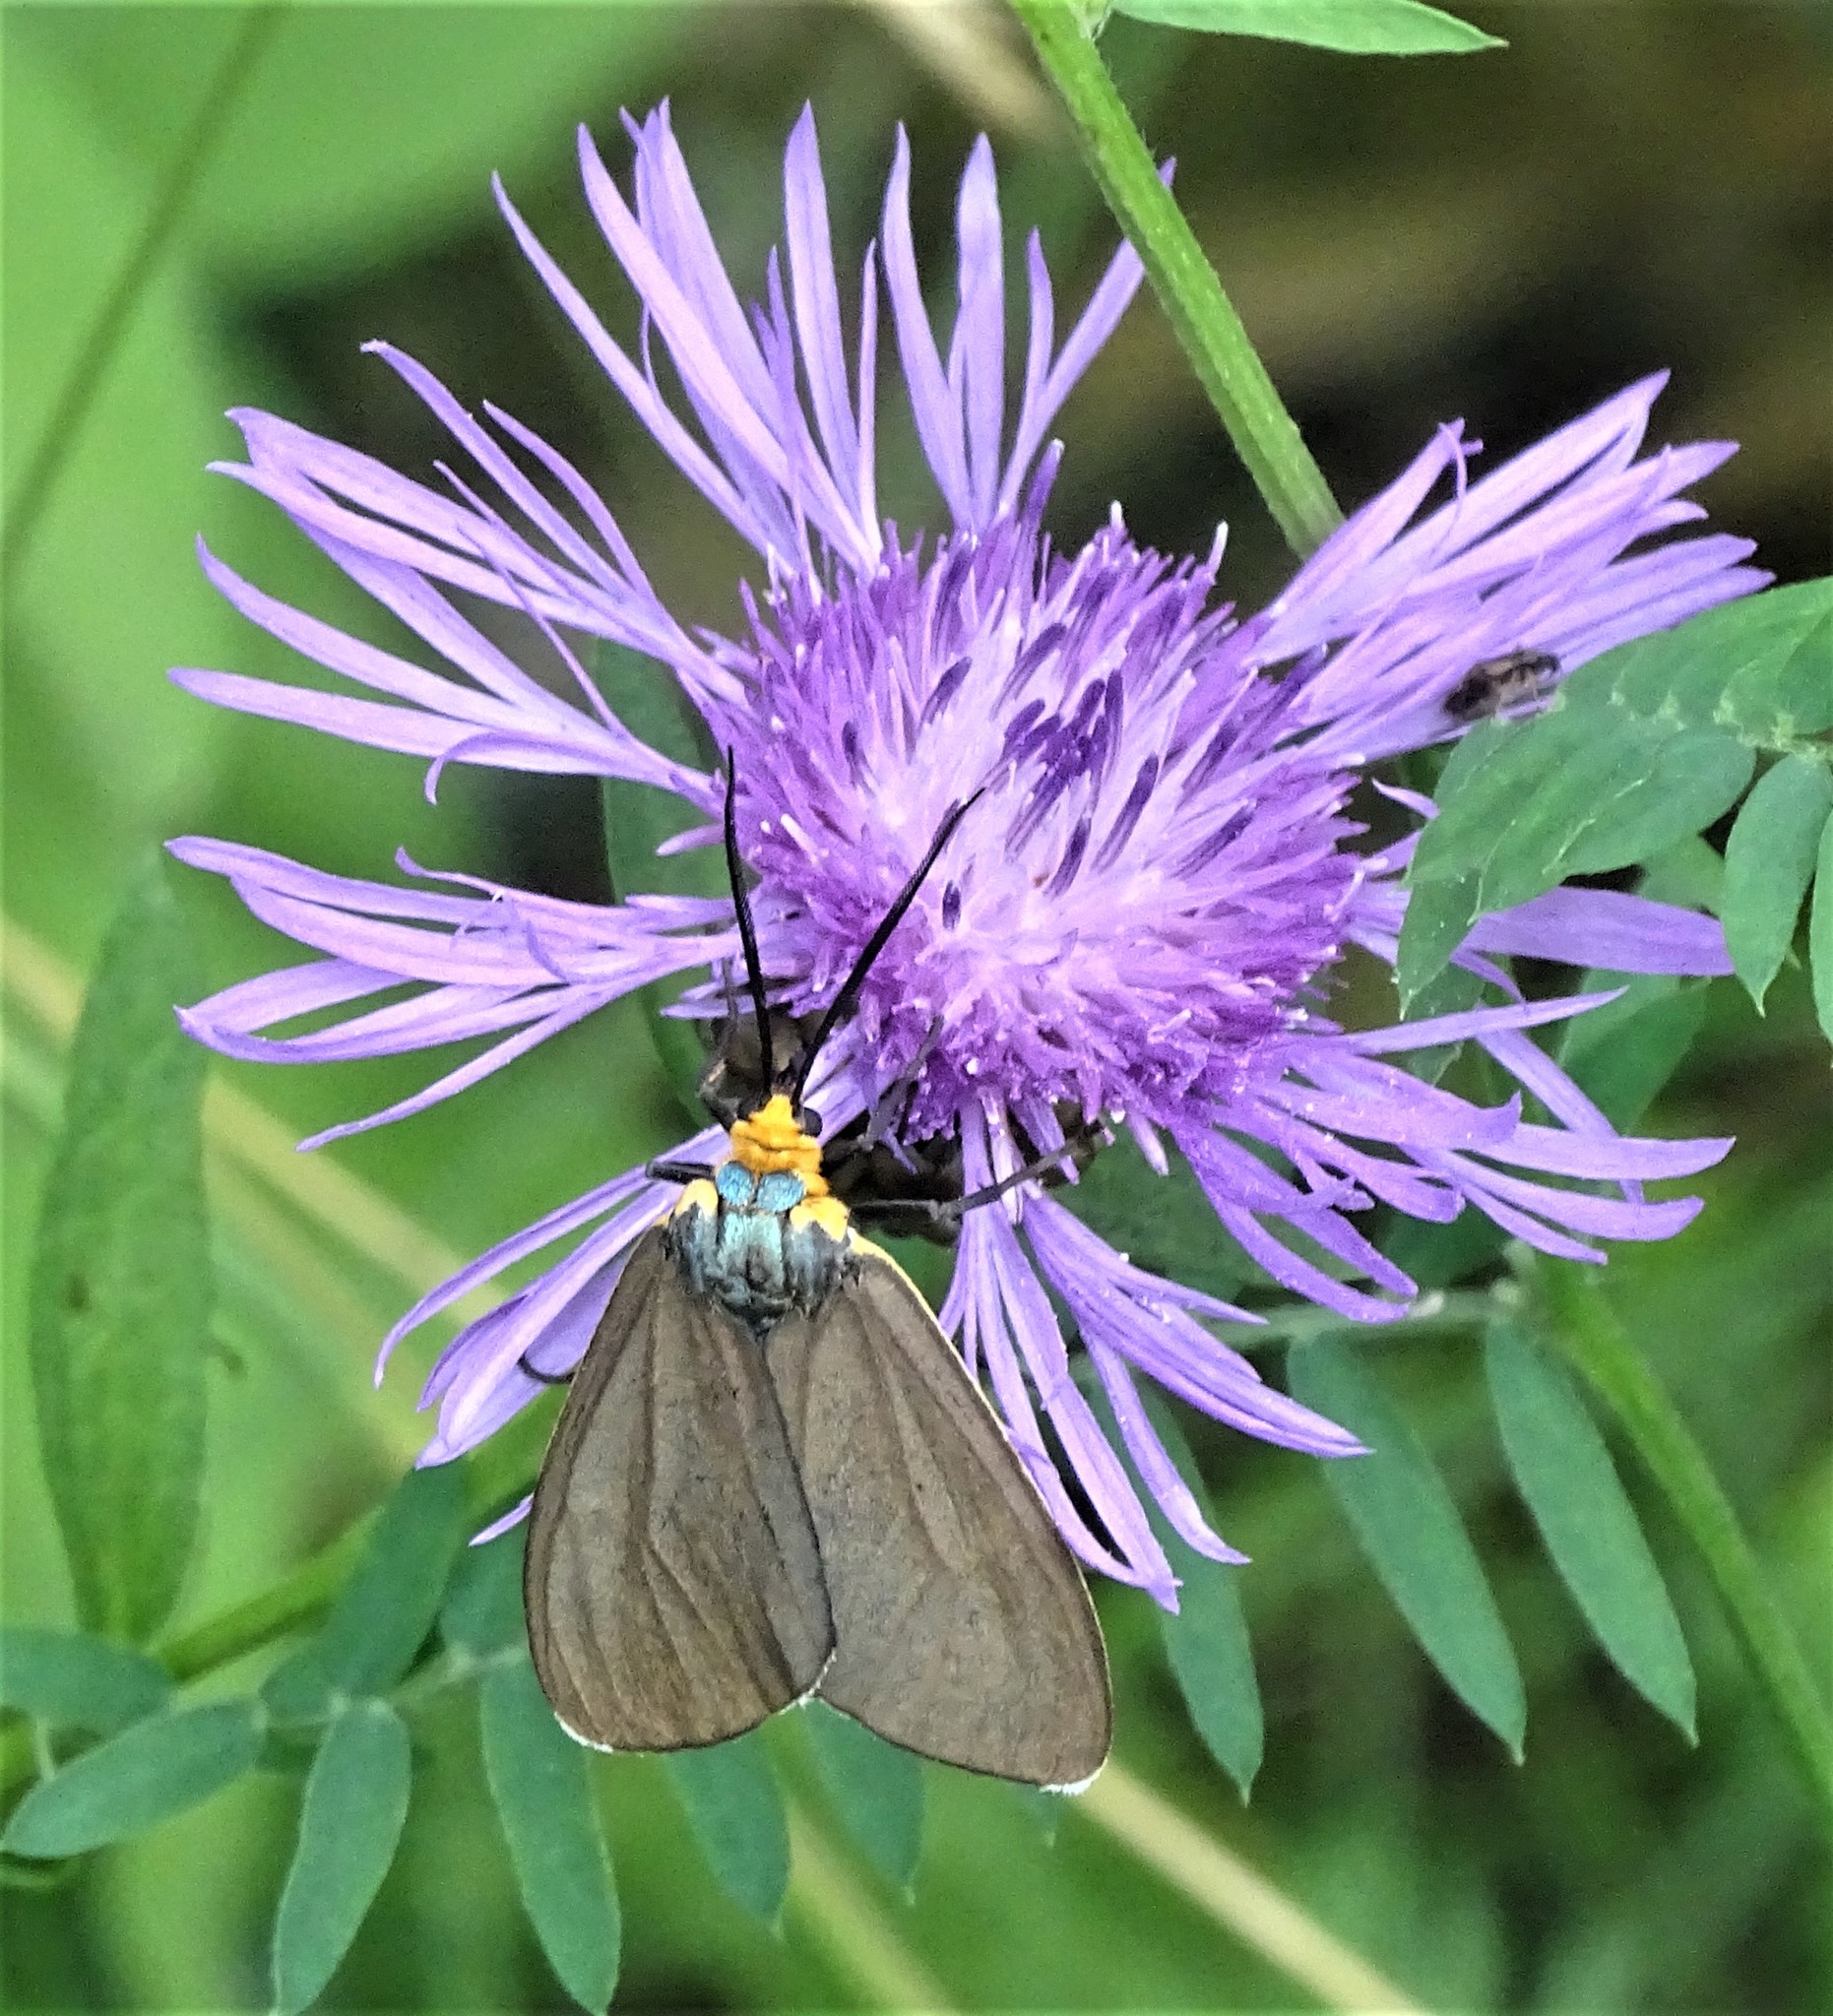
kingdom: Animalia
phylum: Arthropoda
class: Insecta
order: Lepidoptera
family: Erebidae
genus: Ctenucha
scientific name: Ctenucha virginica
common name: Virginia ctenucha moth
